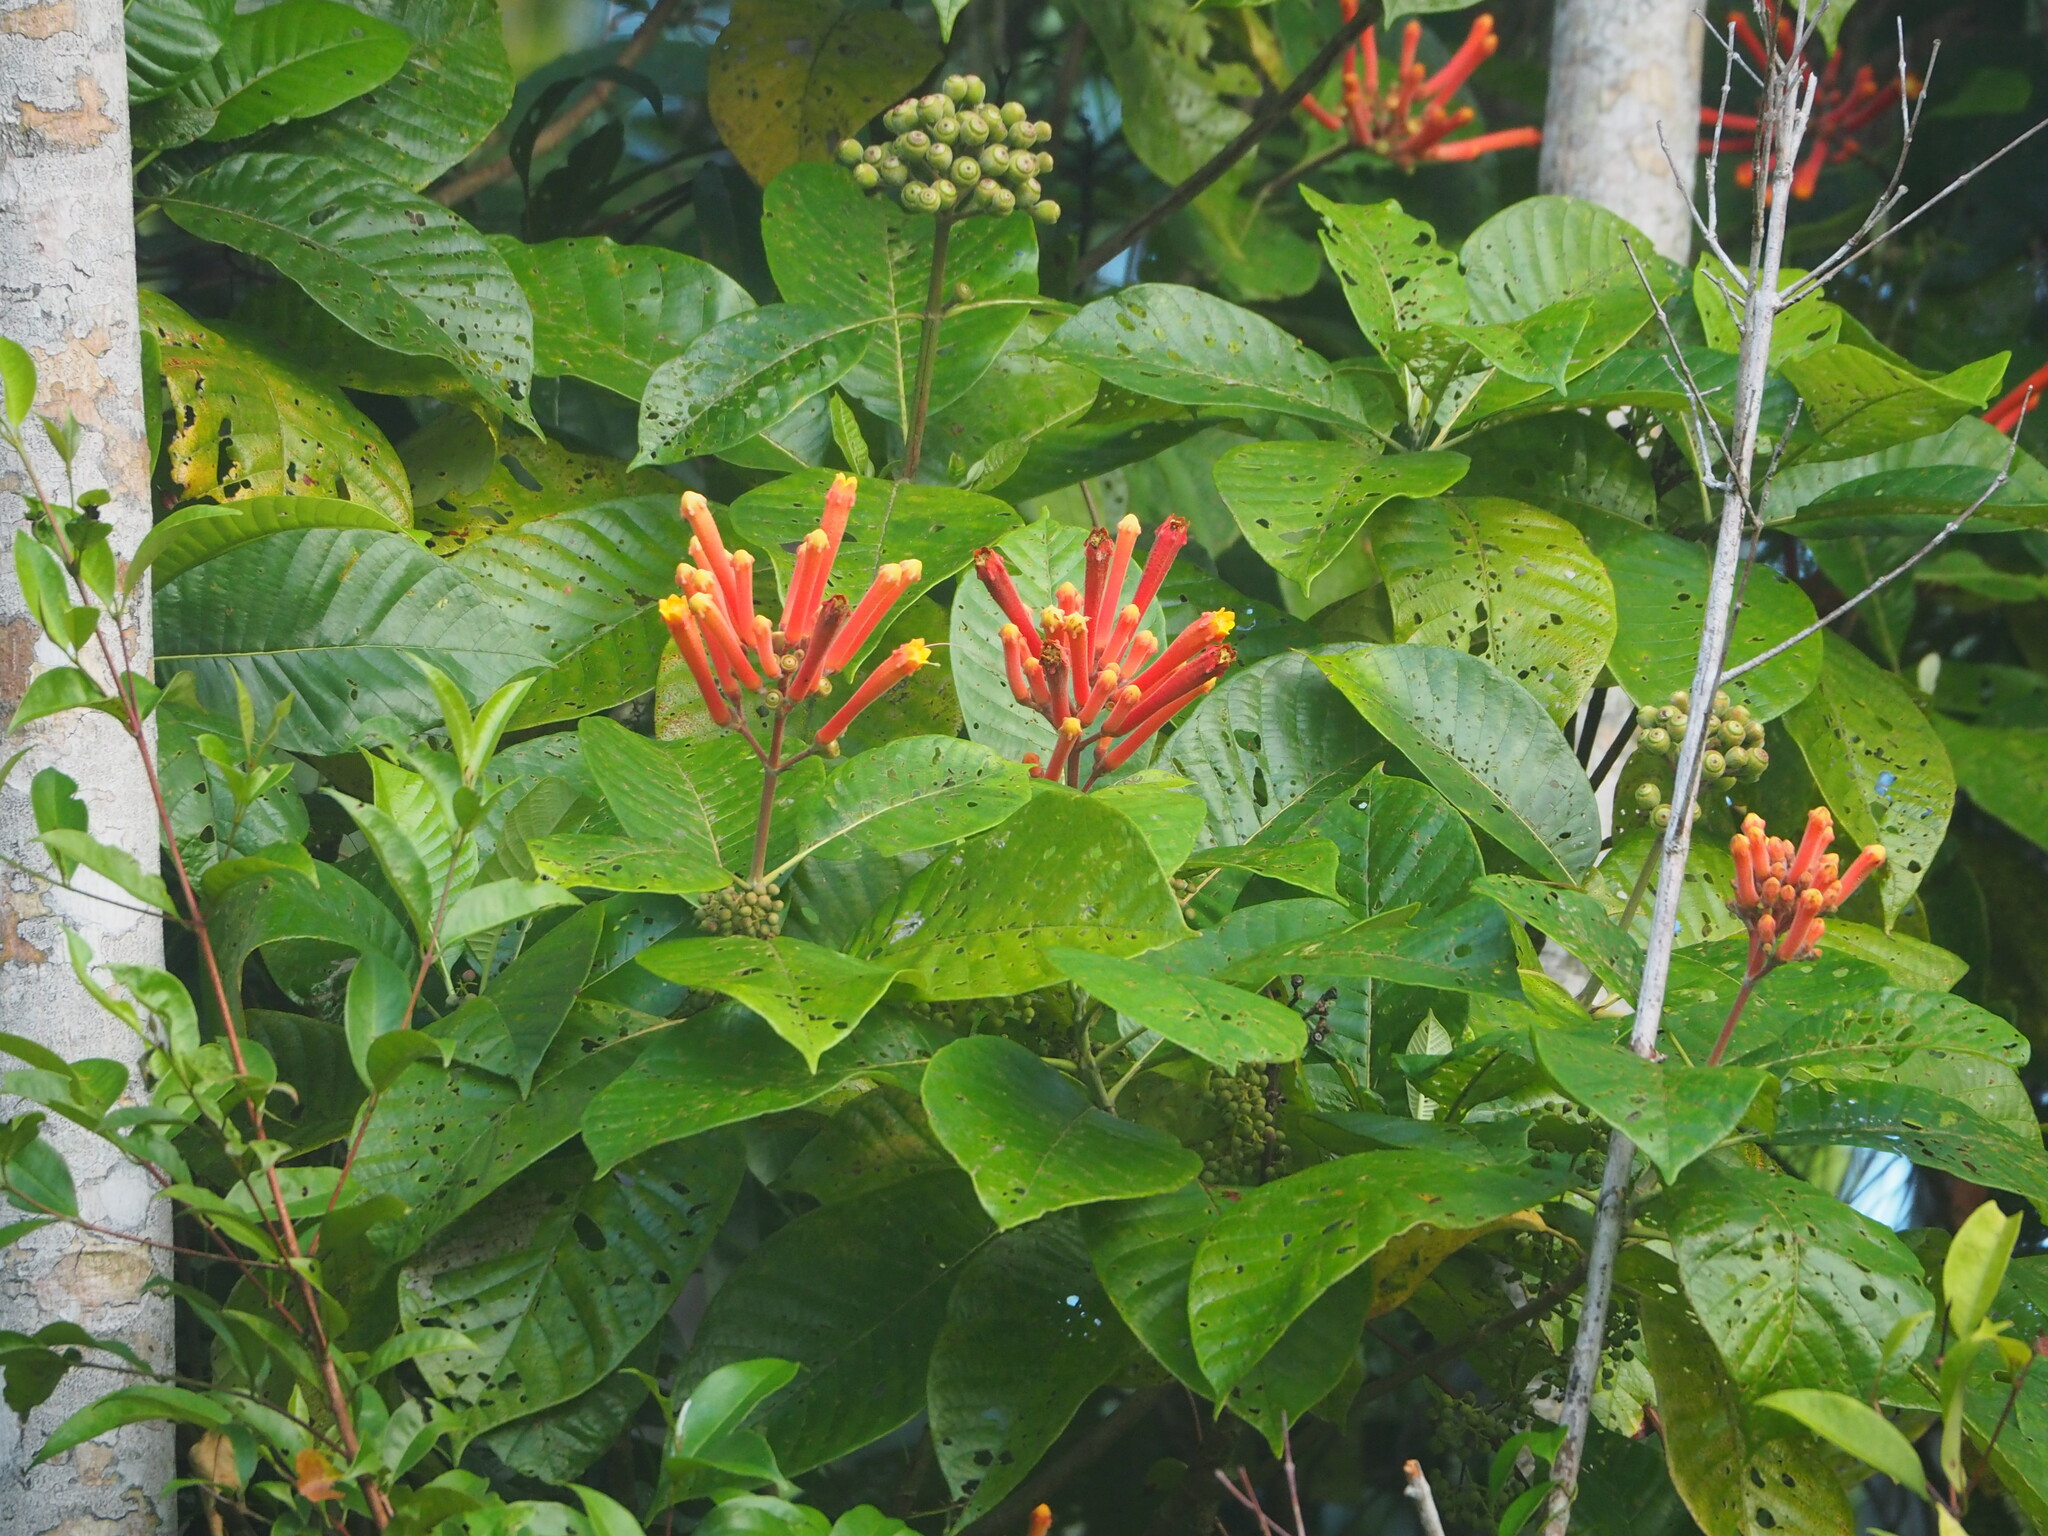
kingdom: Plantae
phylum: Tracheophyta
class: Magnoliopsida
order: Gentianales
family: Rubiaceae
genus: Isertia
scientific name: Isertia coccinea
